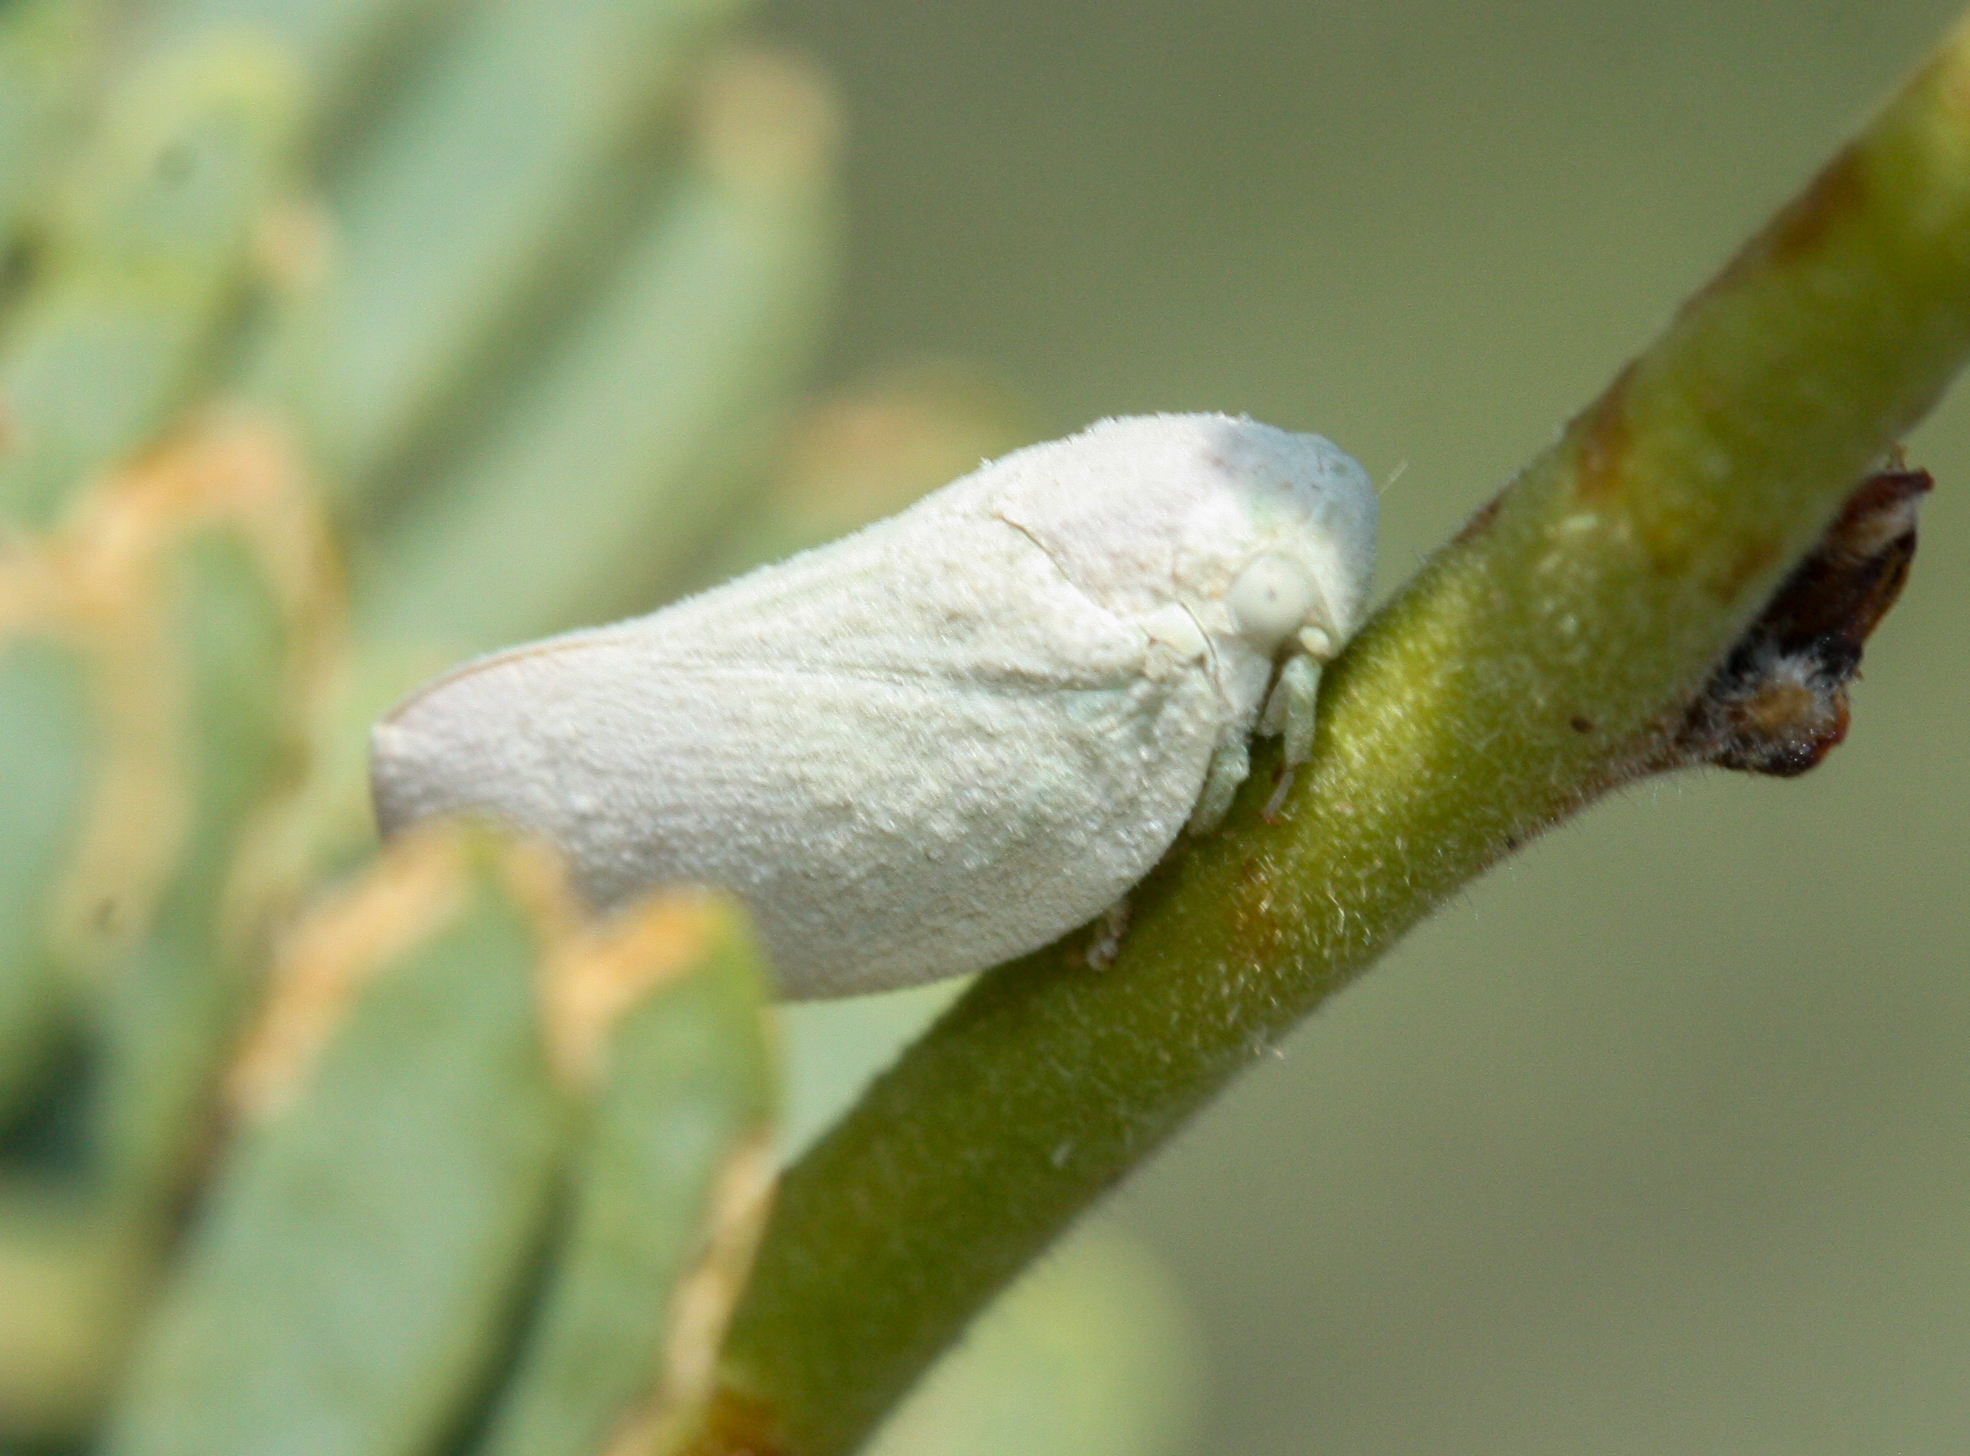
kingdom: Animalia
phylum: Arthropoda
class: Insecta
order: Hemiptera
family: Flatidae
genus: Flatormenis
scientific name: Flatormenis saucia
